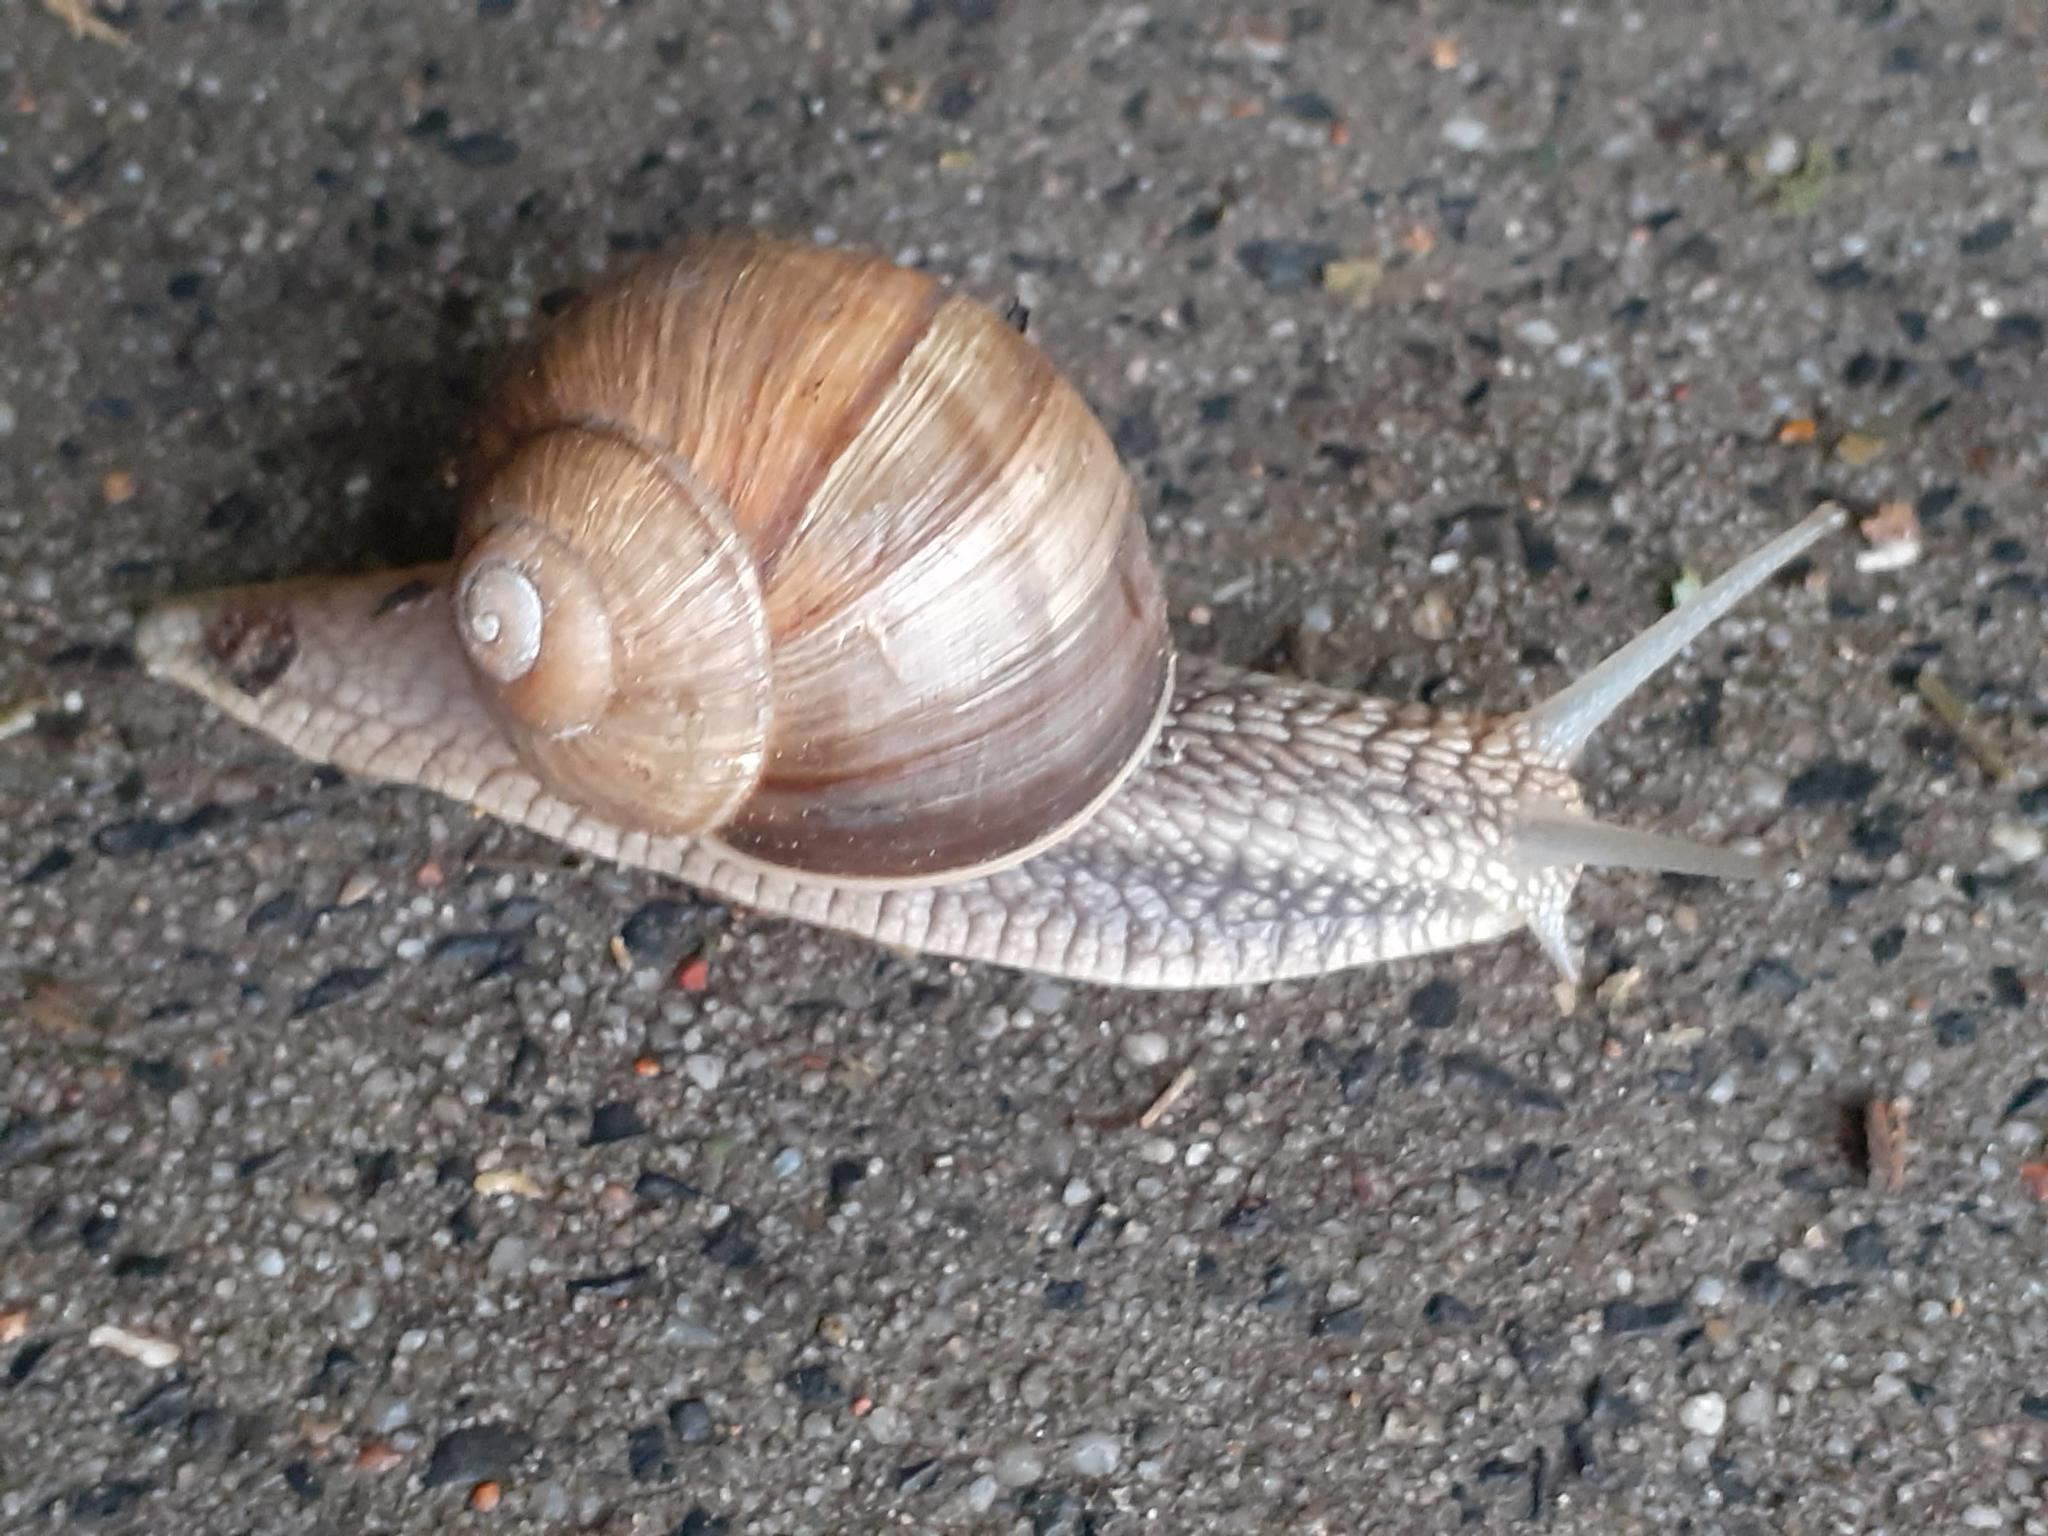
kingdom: Animalia
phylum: Mollusca
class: Gastropoda
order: Stylommatophora
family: Helicidae
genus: Helix
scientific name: Helix pomatia
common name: Roman snail
